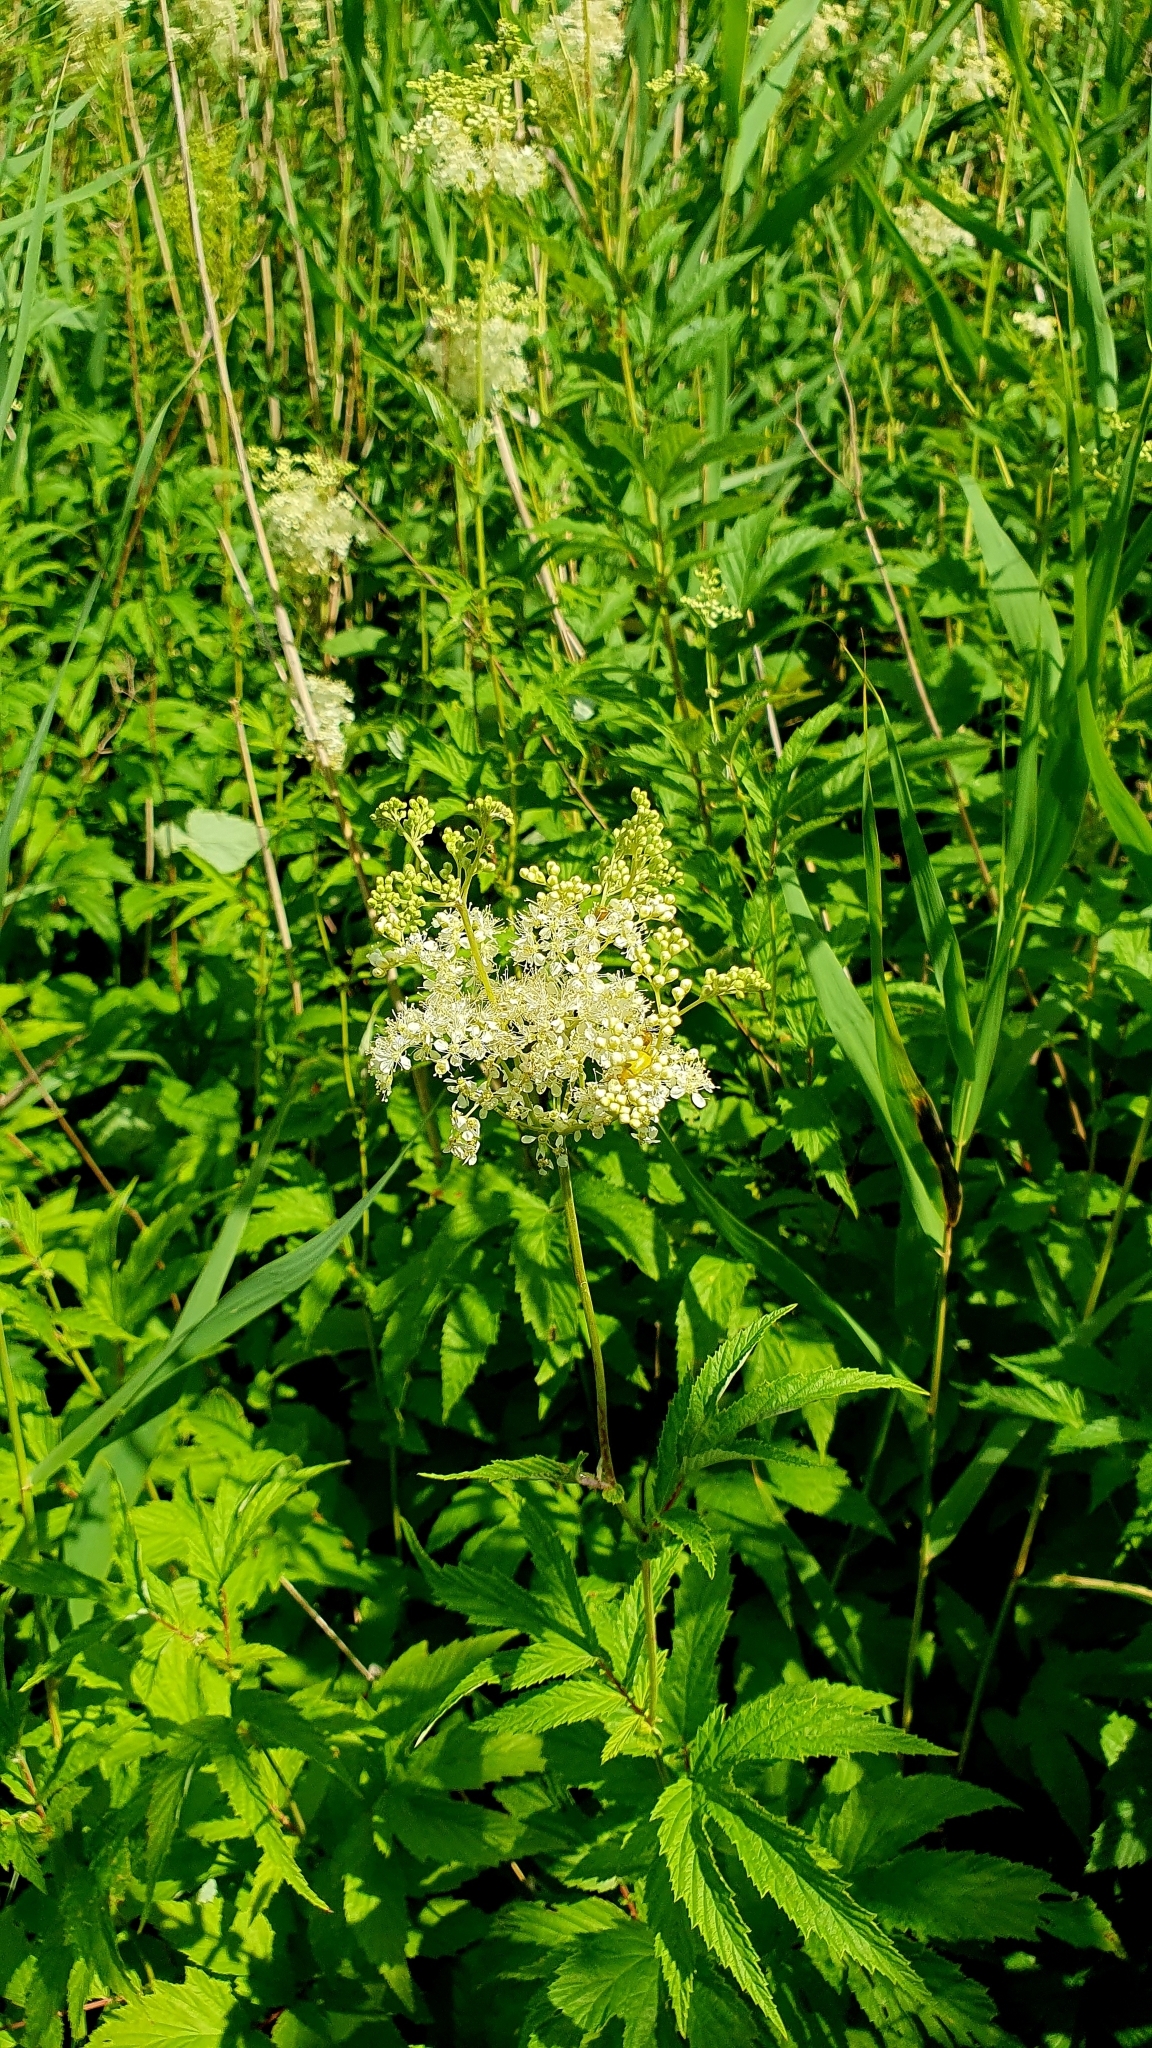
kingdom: Plantae
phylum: Tracheophyta
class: Magnoliopsida
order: Rosales
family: Rosaceae
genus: Filipendula
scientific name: Filipendula ulmaria
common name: Meadowsweet
